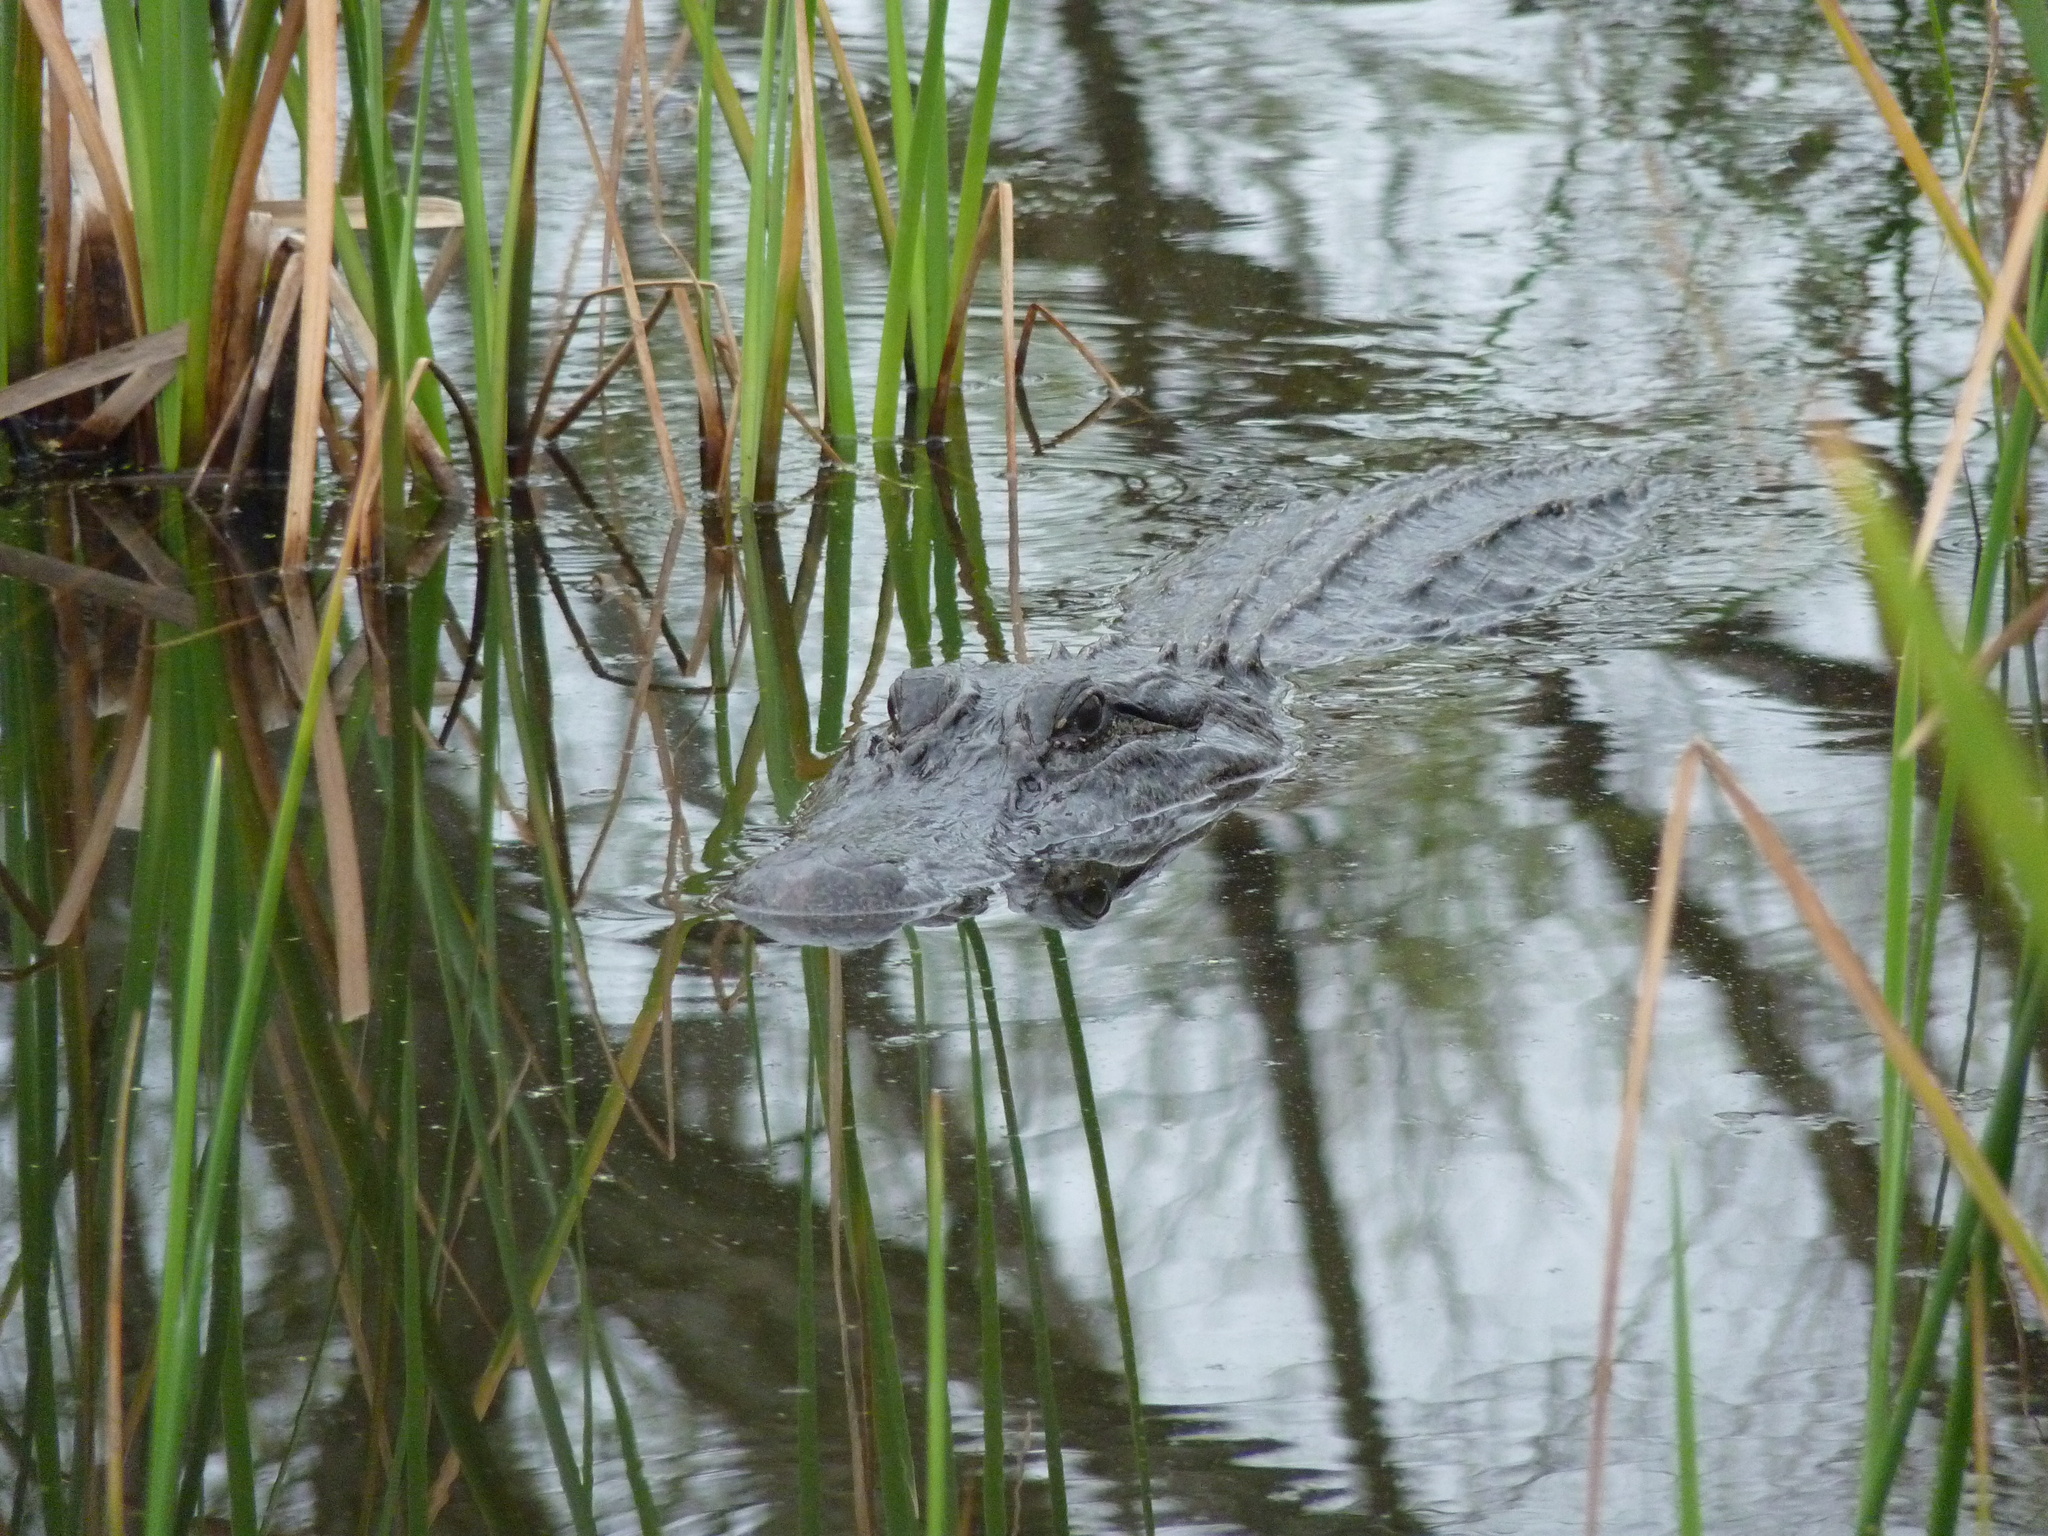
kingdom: Animalia
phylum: Chordata
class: Crocodylia
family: Alligatoridae
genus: Alligator
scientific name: Alligator mississippiensis
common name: American alligator
